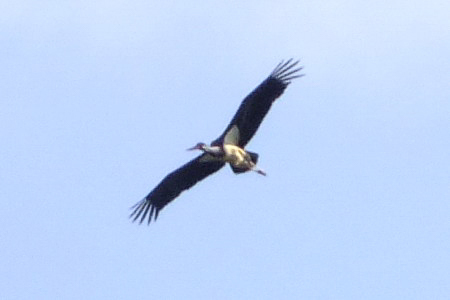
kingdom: Animalia
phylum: Chordata
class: Aves
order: Ciconiiformes
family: Ciconiidae
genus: Ciconia
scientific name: Ciconia nigra
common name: Black stork
